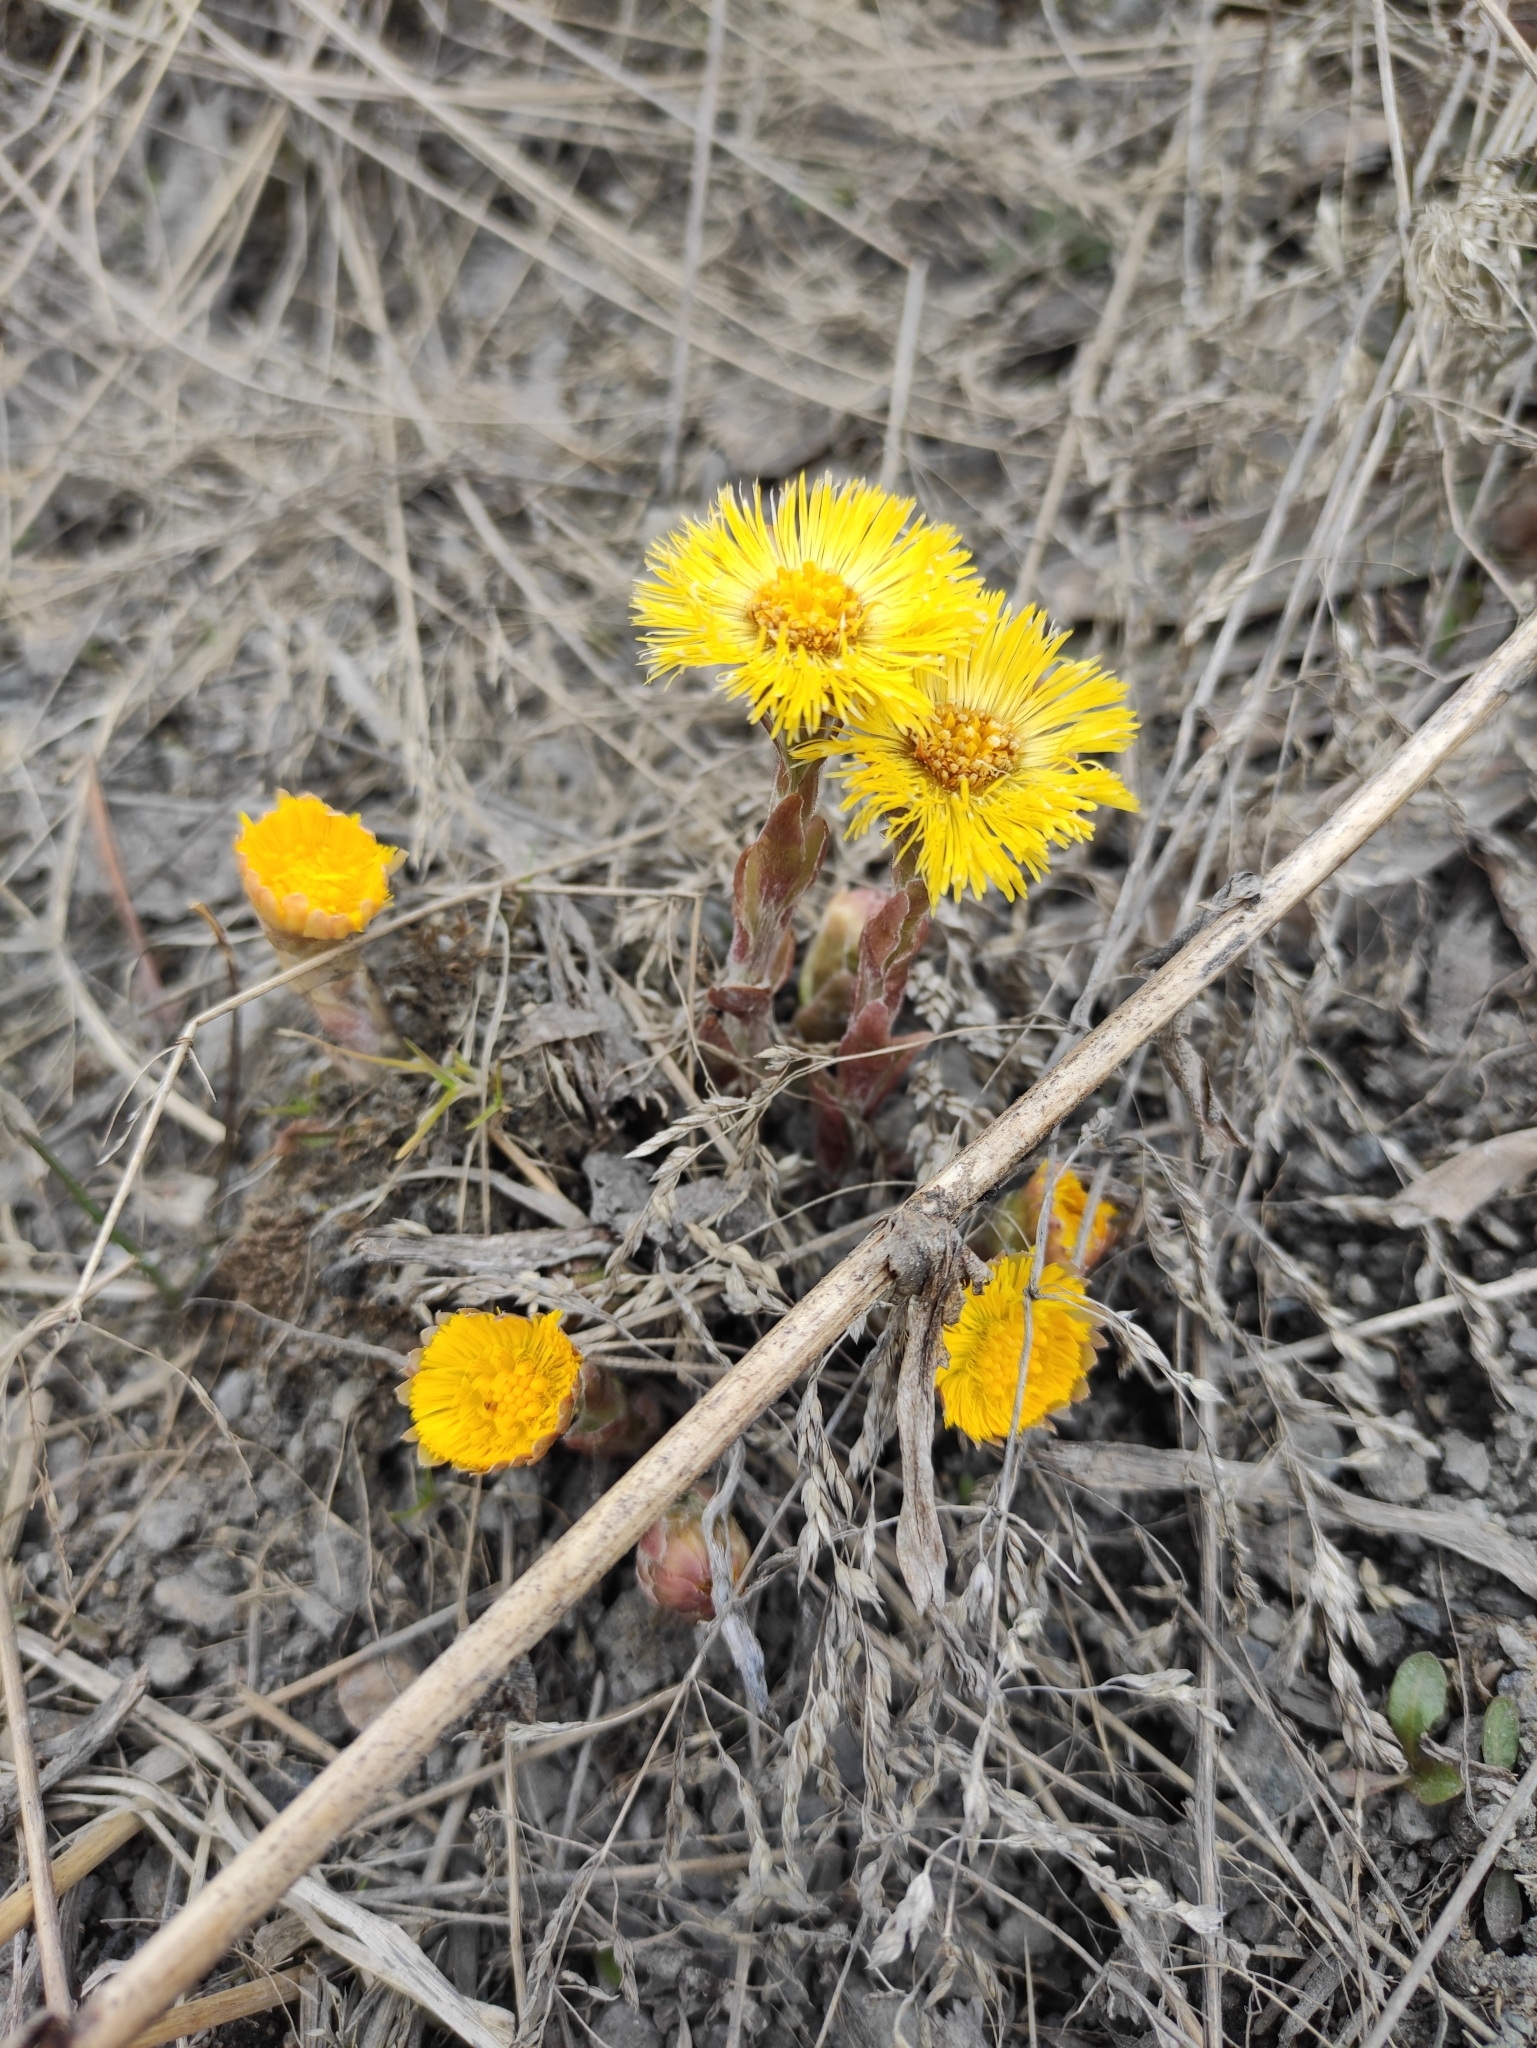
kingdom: Plantae
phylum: Tracheophyta
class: Magnoliopsida
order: Asterales
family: Asteraceae
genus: Tussilago
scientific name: Tussilago farfara
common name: Coltsfoot
